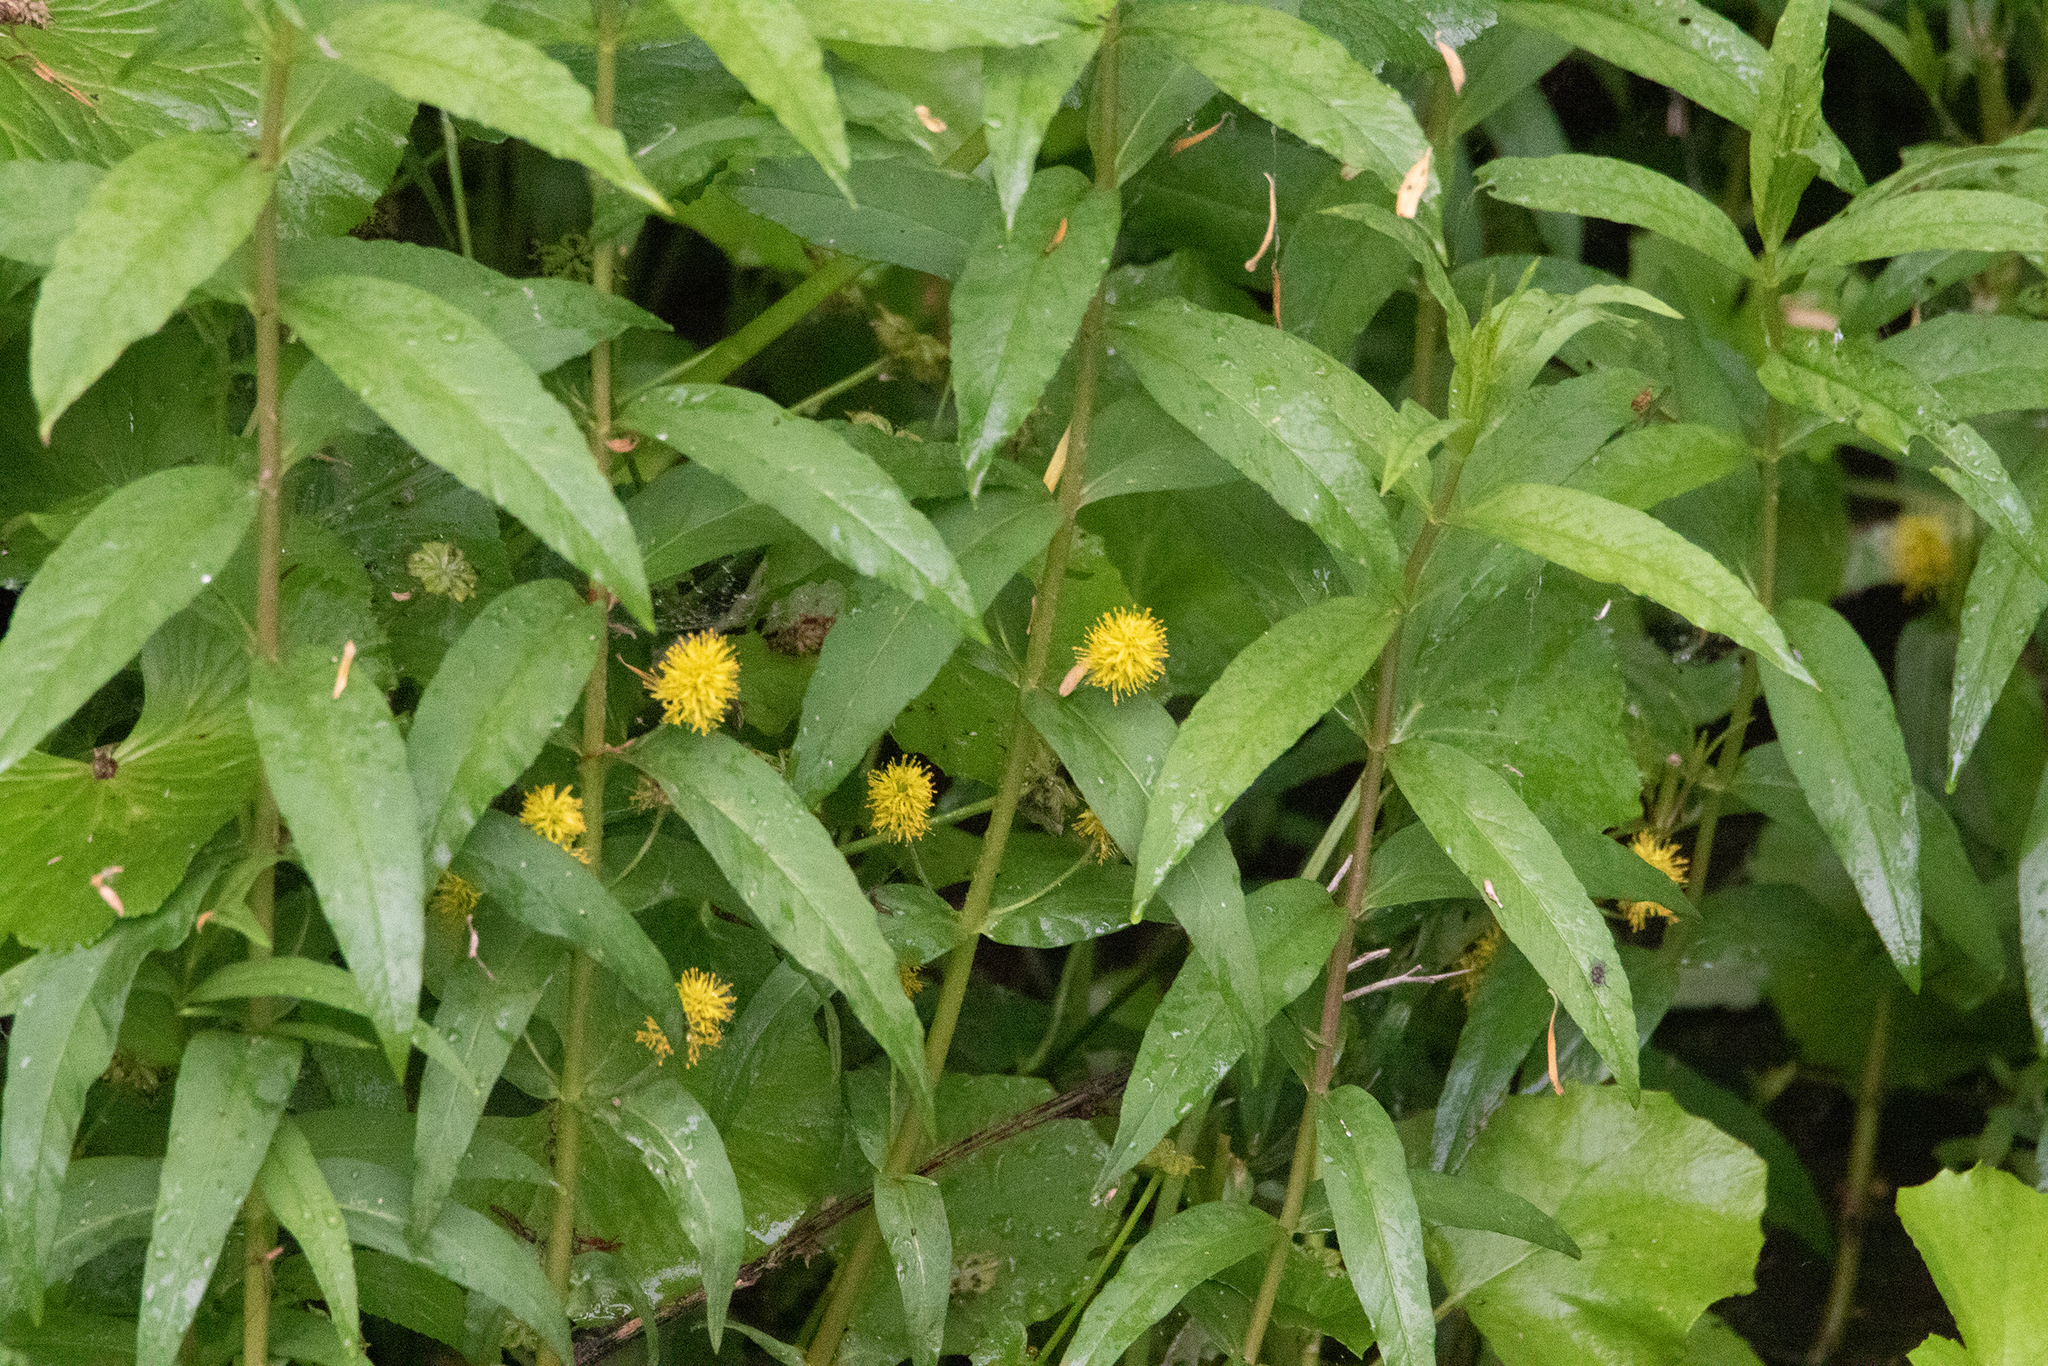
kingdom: Plantae
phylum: Tracheophyta
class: Magnoliopsida
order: Ericales
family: Primulaceae
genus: Lysimachia
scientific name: Lysimachia thyrsiflora
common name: Tufted loosestrife
